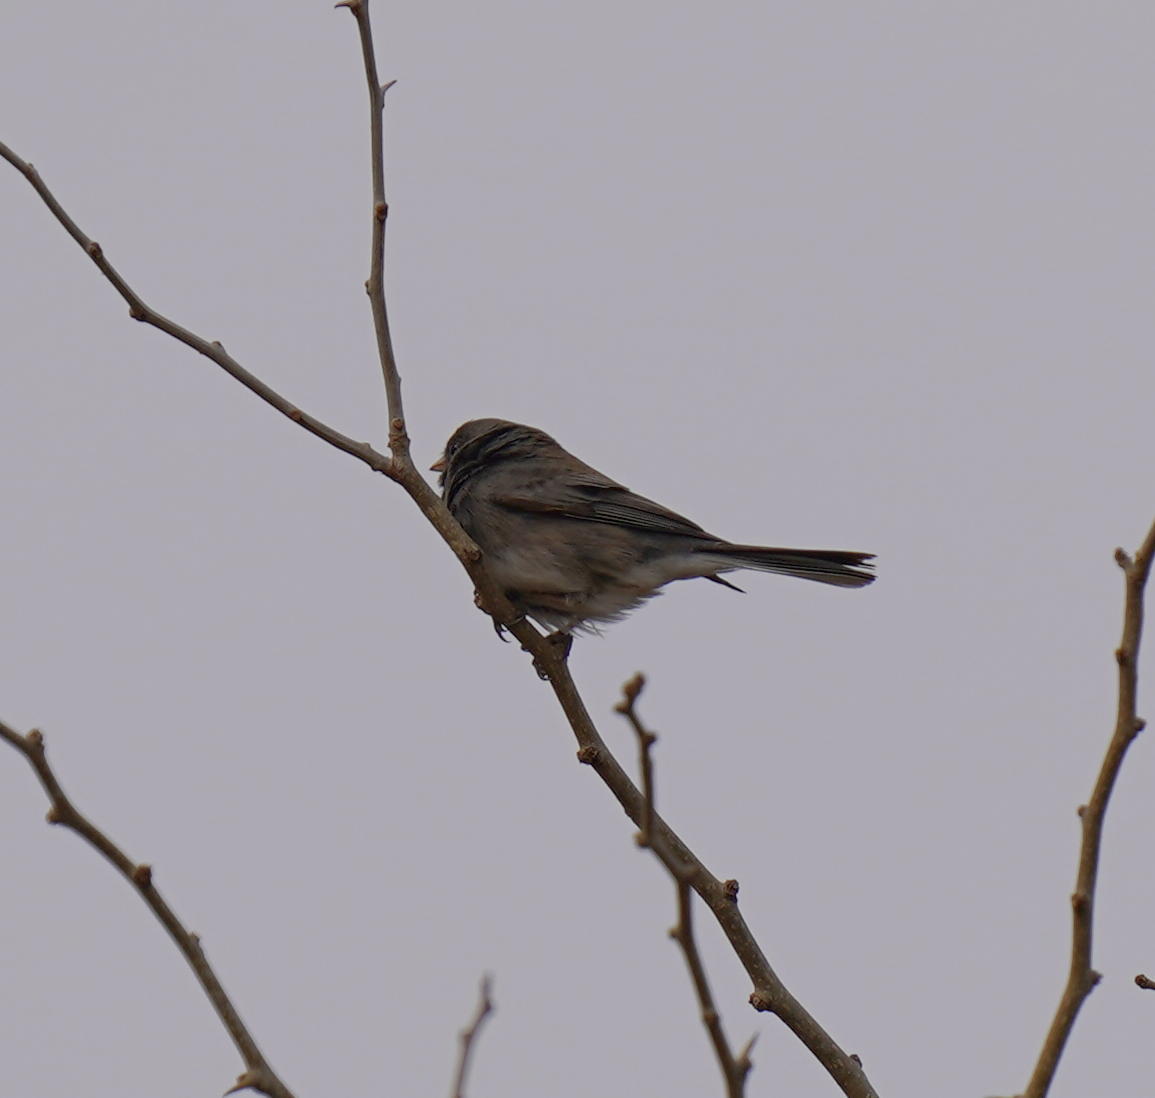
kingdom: Animalia
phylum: Chordata
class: Aves
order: Passeriformes
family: Passerellidae
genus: Junco
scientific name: Junco hyemalis
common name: Dark-eyed junco
